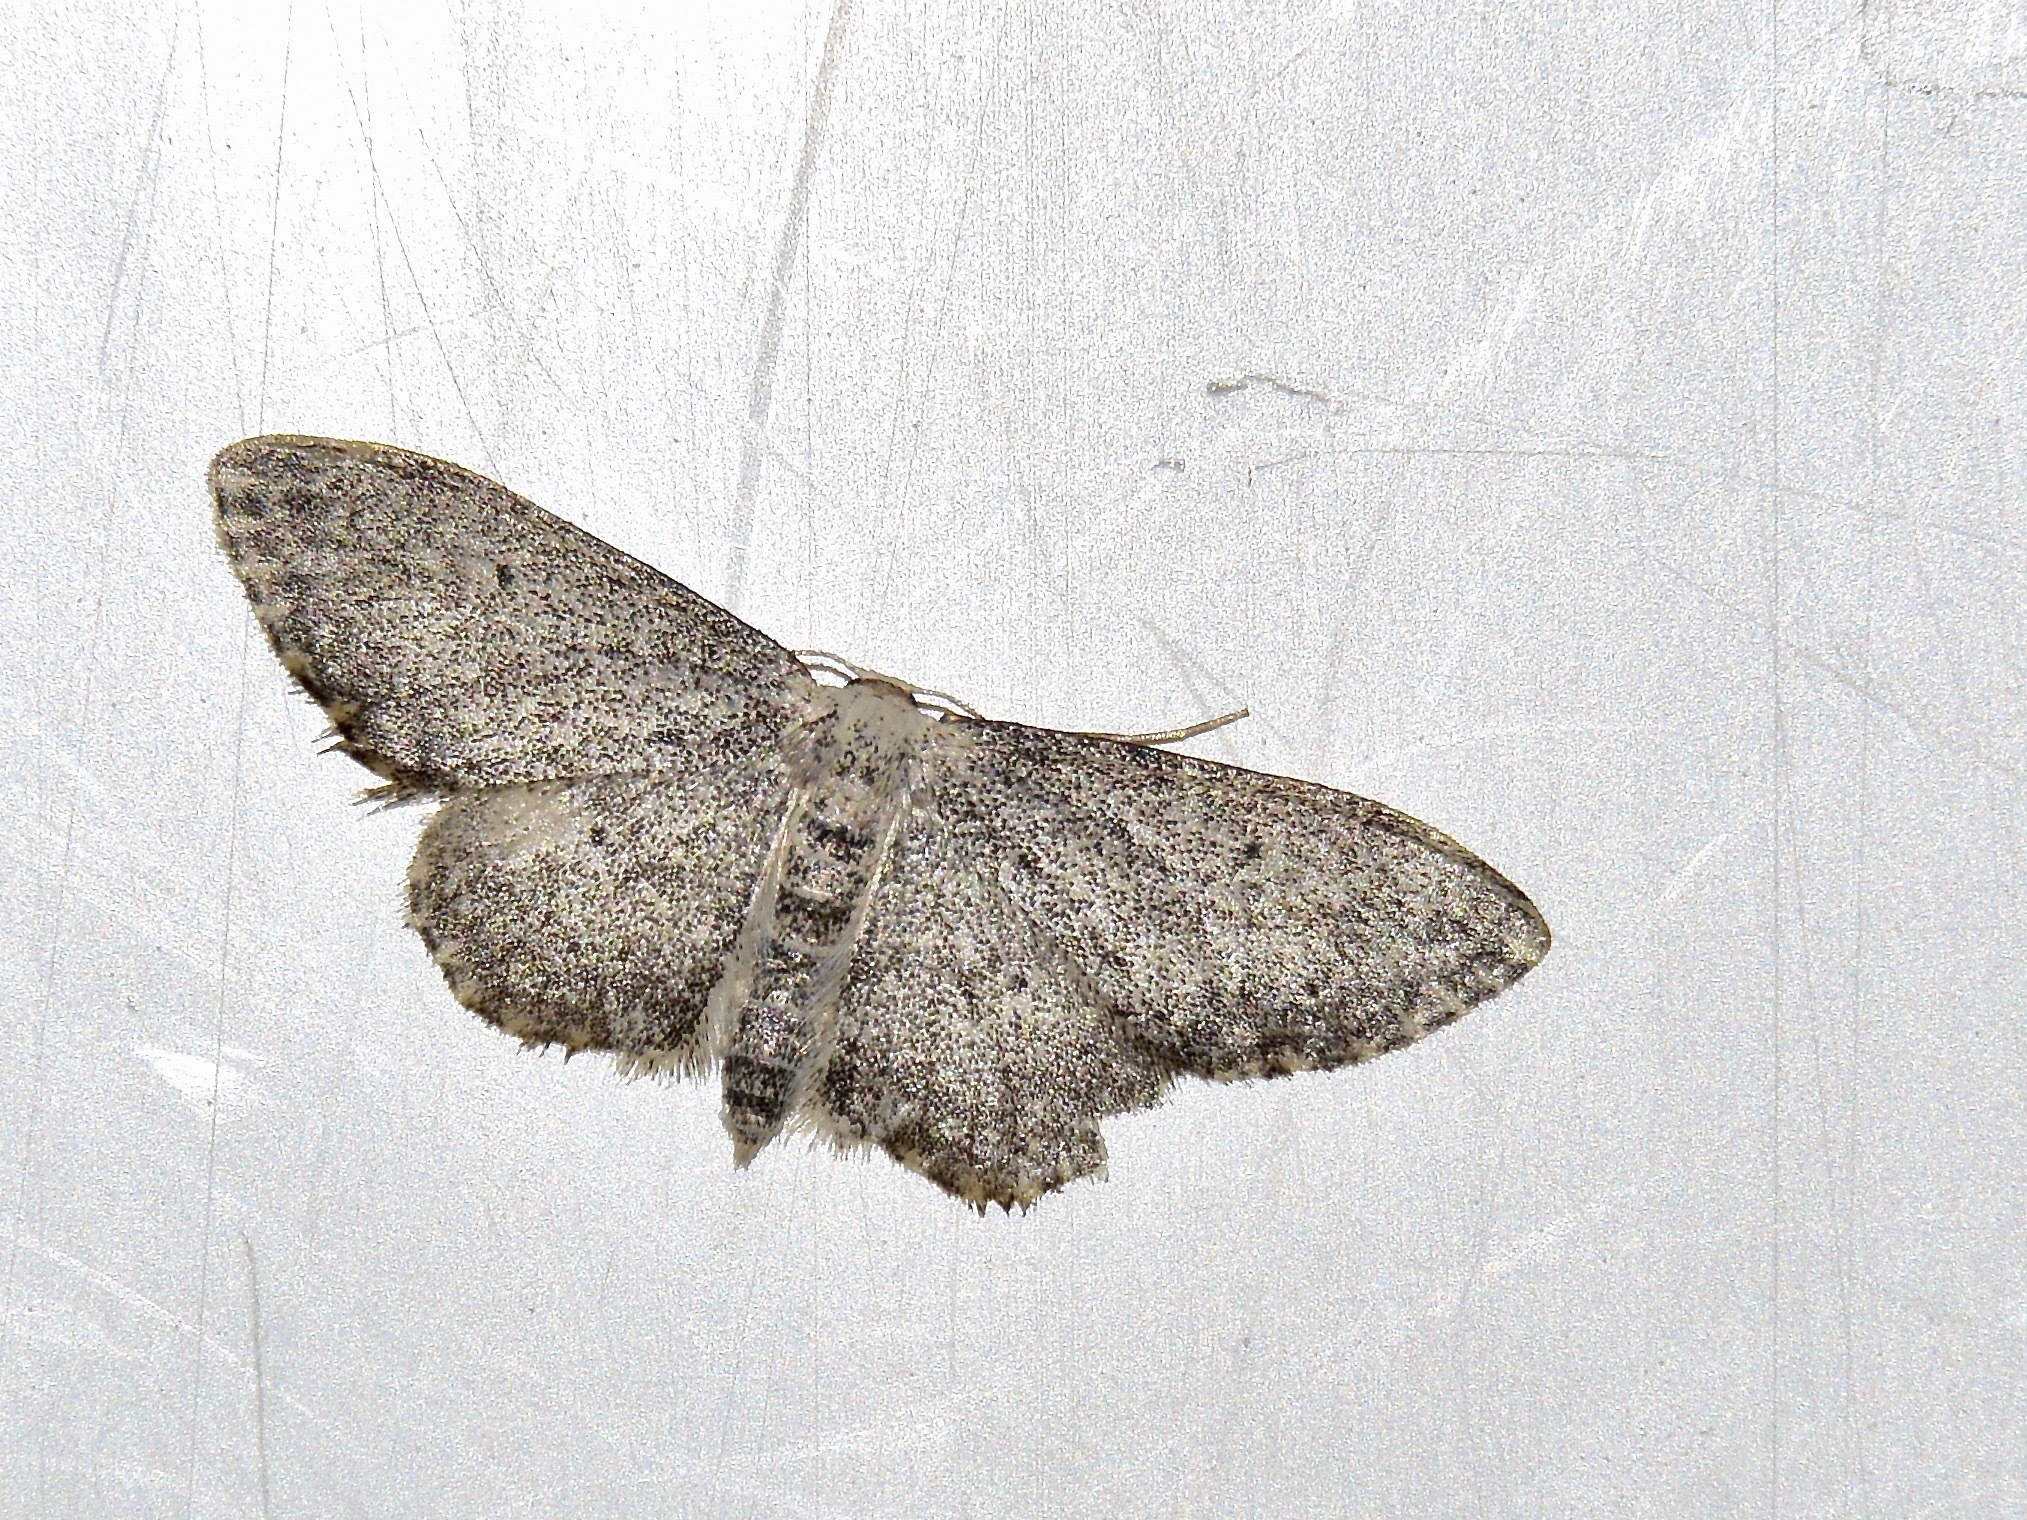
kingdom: Animalia
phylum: Arthropoda
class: Insecta
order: Lepidoptera
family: Geometridae
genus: Idaea
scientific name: Idaea seriata
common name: Small dusty wave
